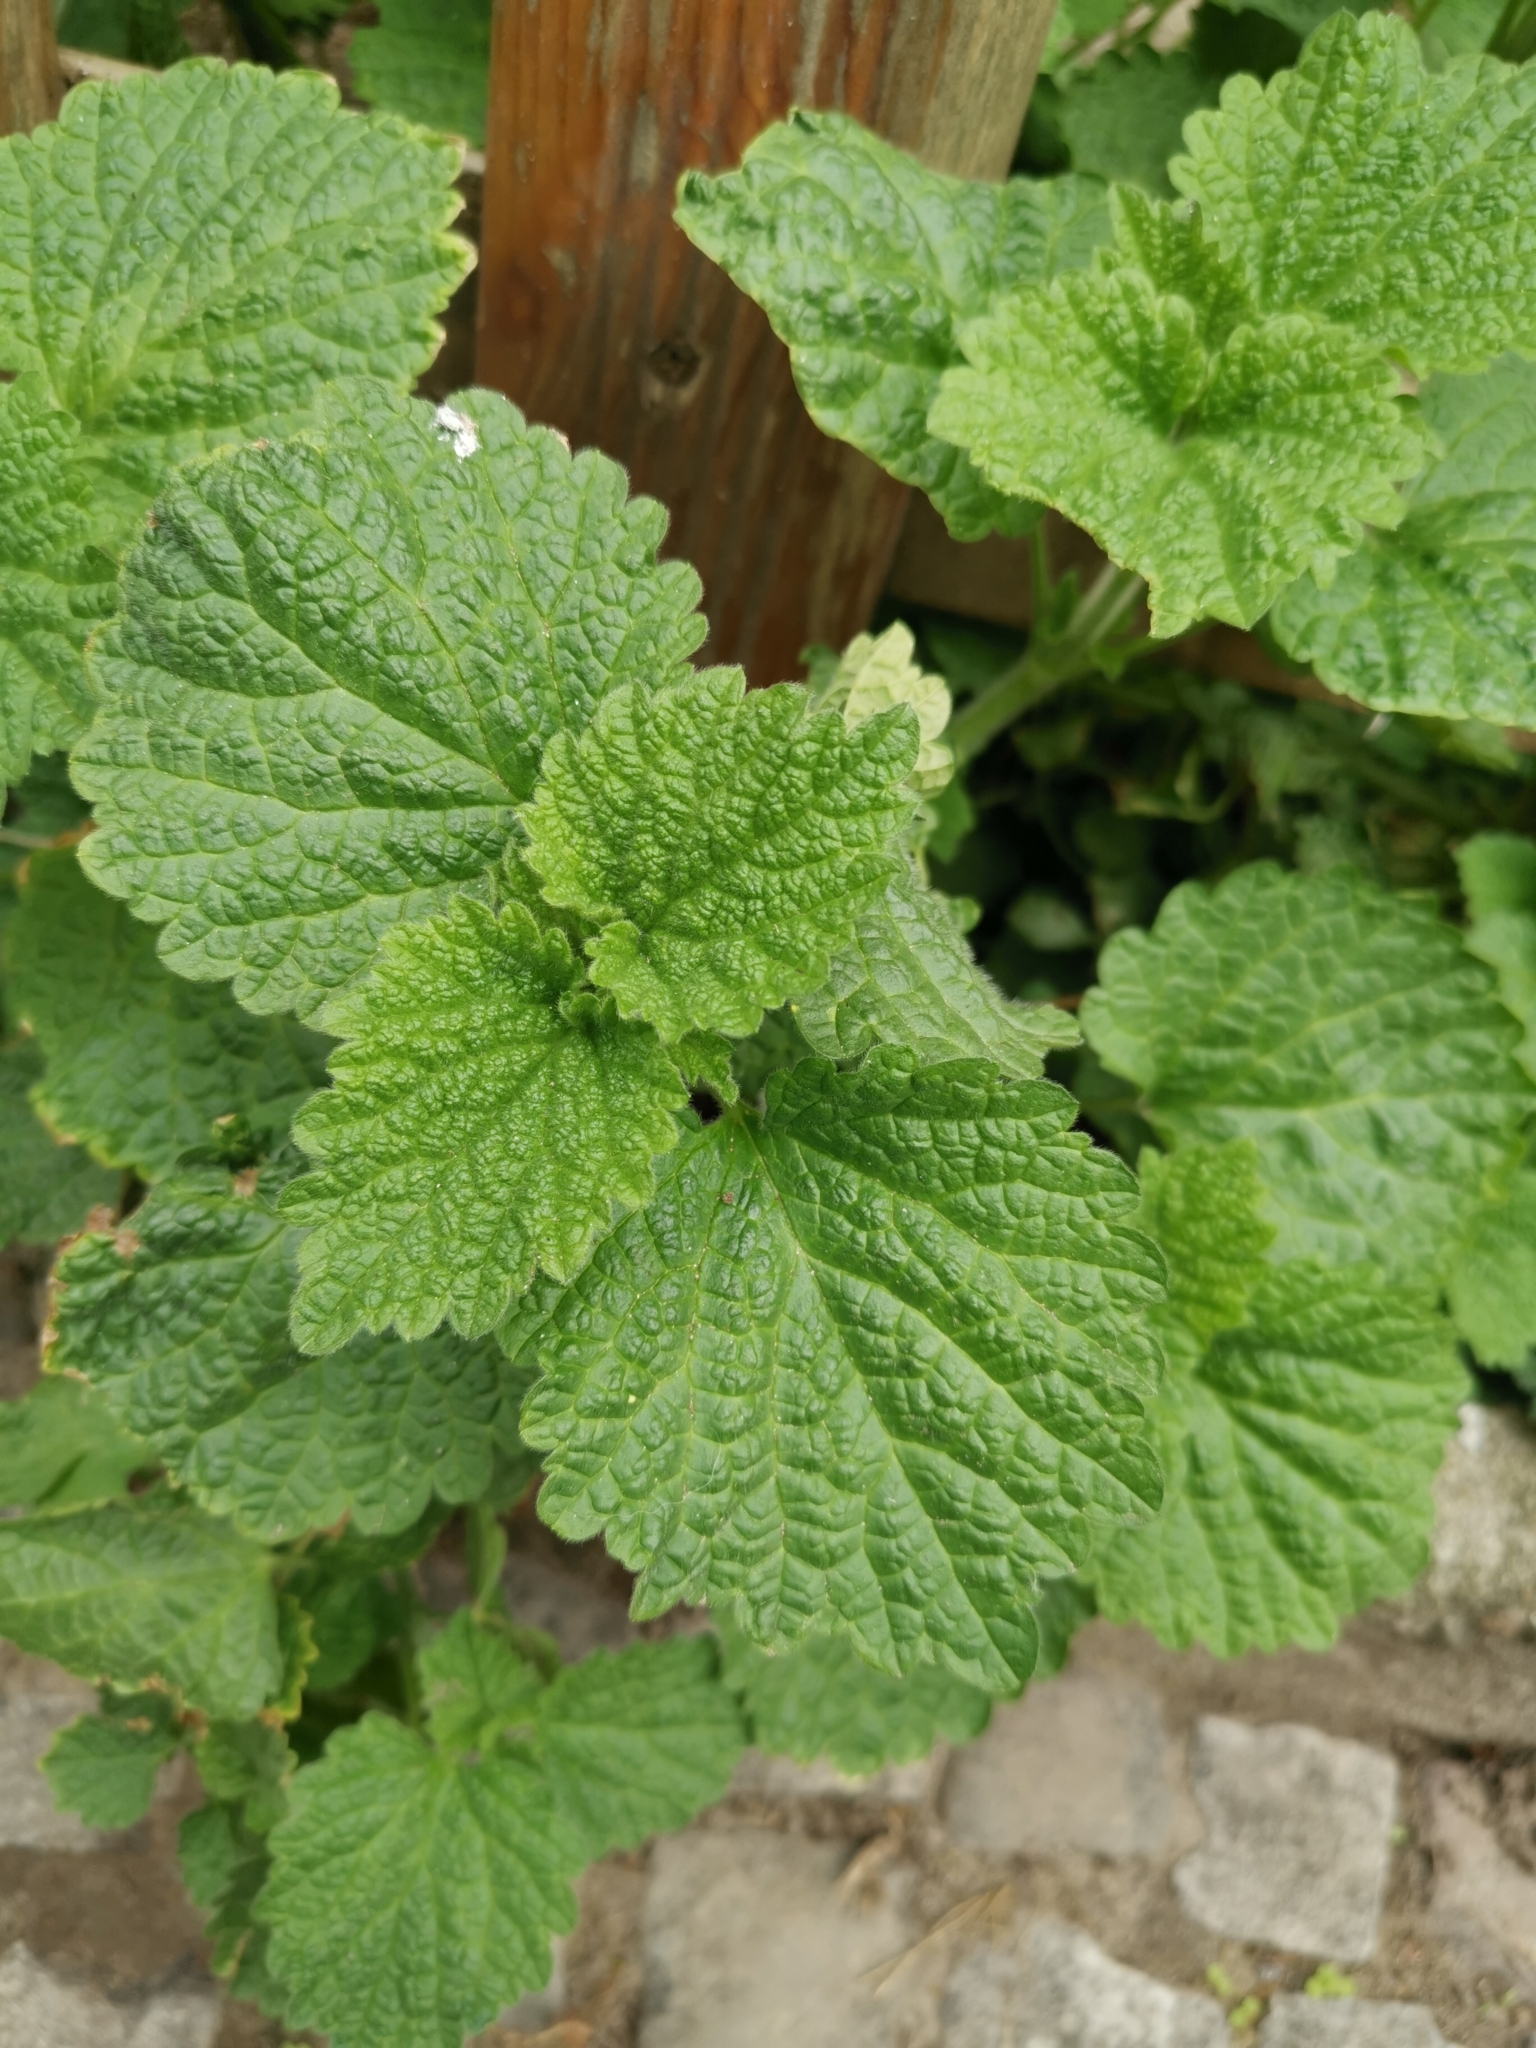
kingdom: Plantae
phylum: Tracheophyta
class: Magnoliopsida
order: Lamiales
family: Lamiaceae
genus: Ballota
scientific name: Ballota nigra
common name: Black horehound
